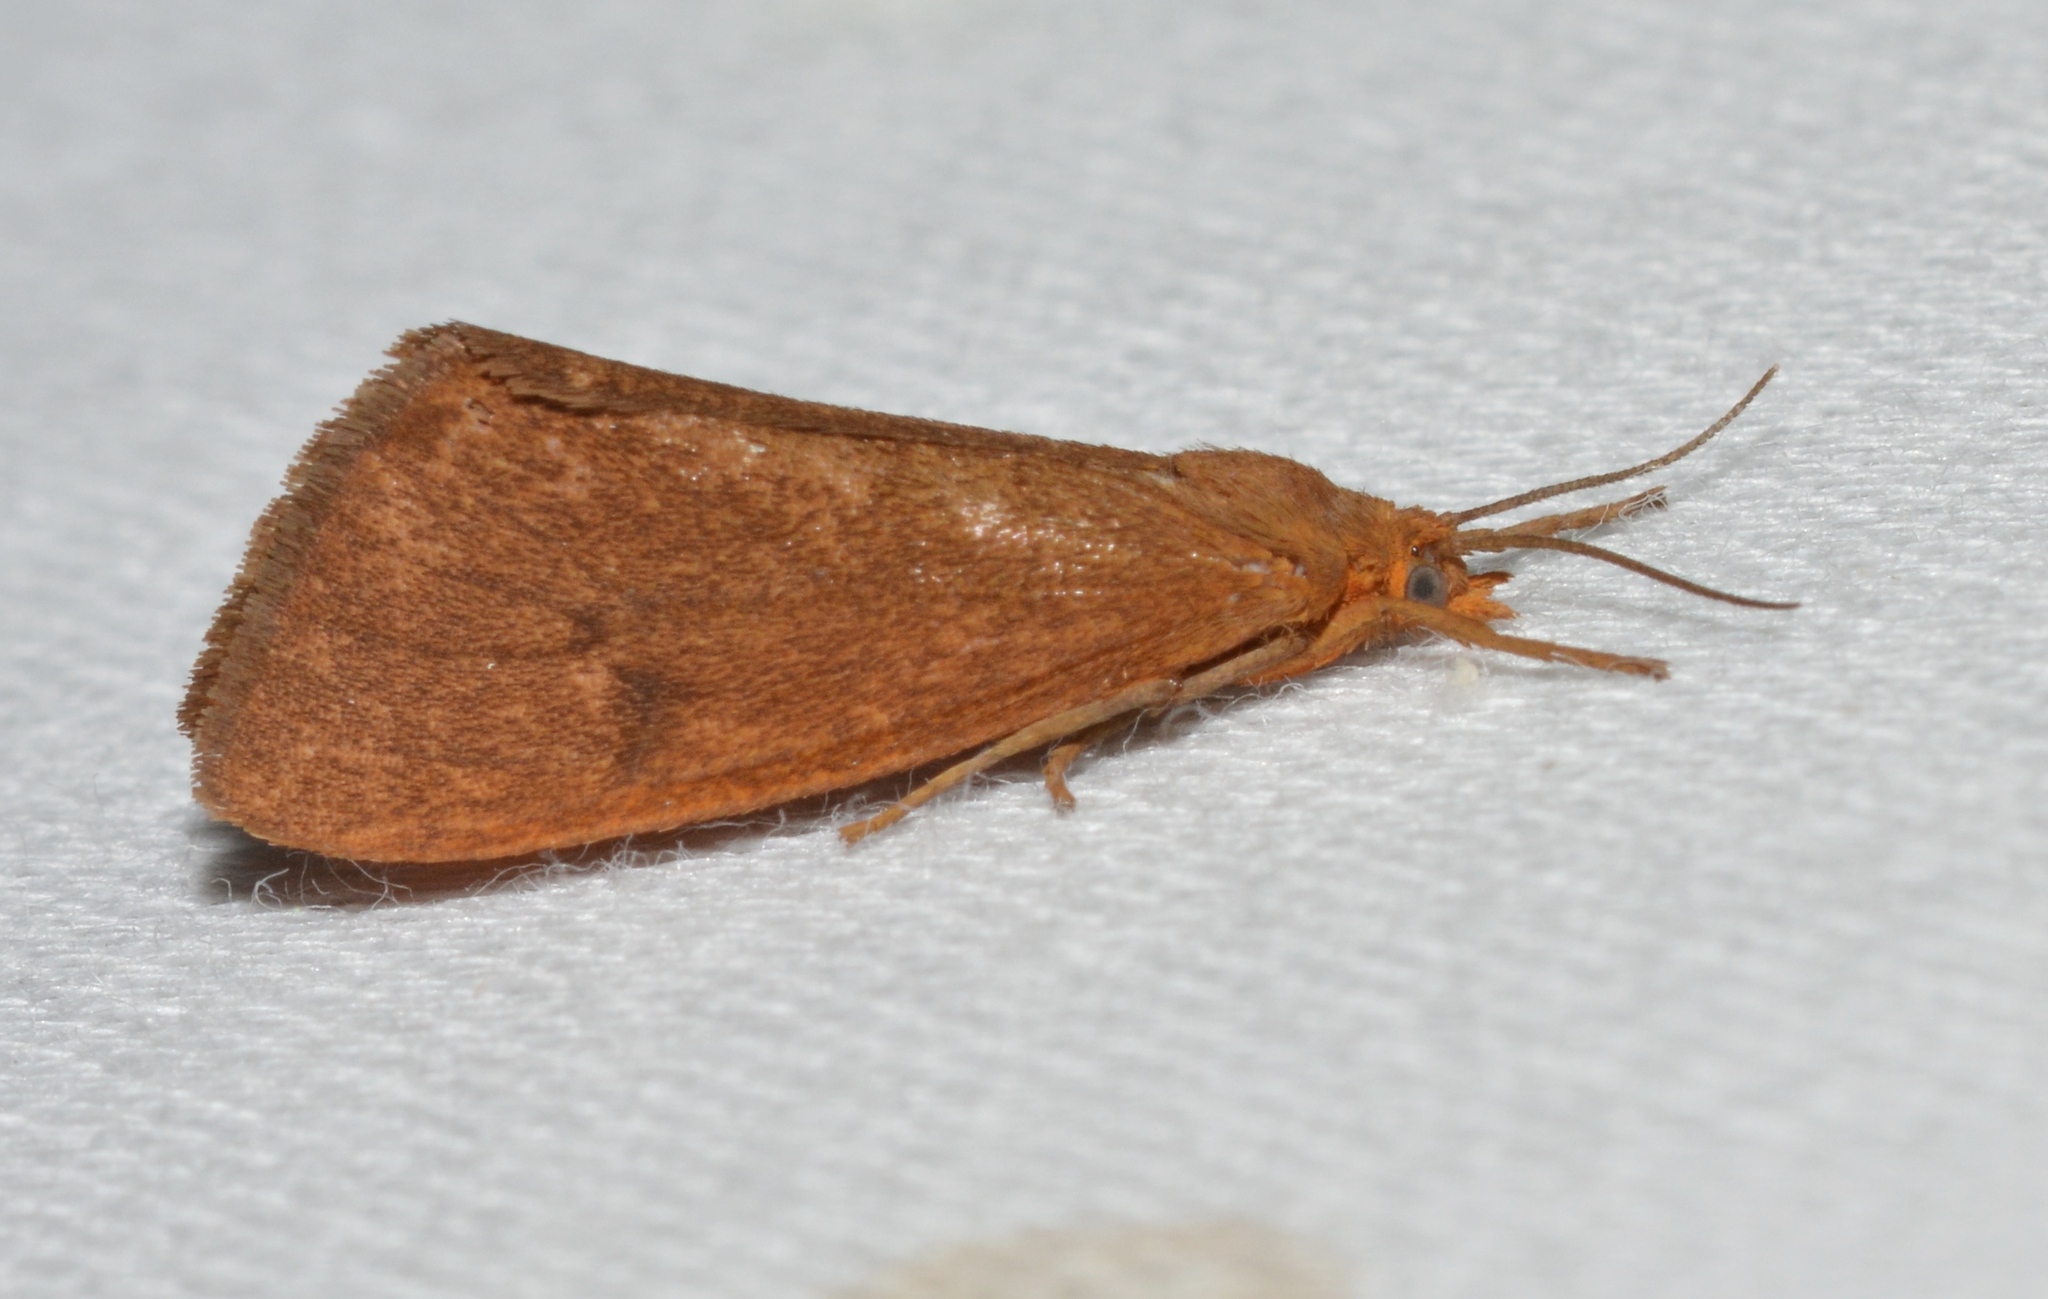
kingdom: Animalia
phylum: Arthropoda
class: Insecta
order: Lepidoptera
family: Erebidae
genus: Virbia
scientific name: Virbia opella
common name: Tawny virbia moth
